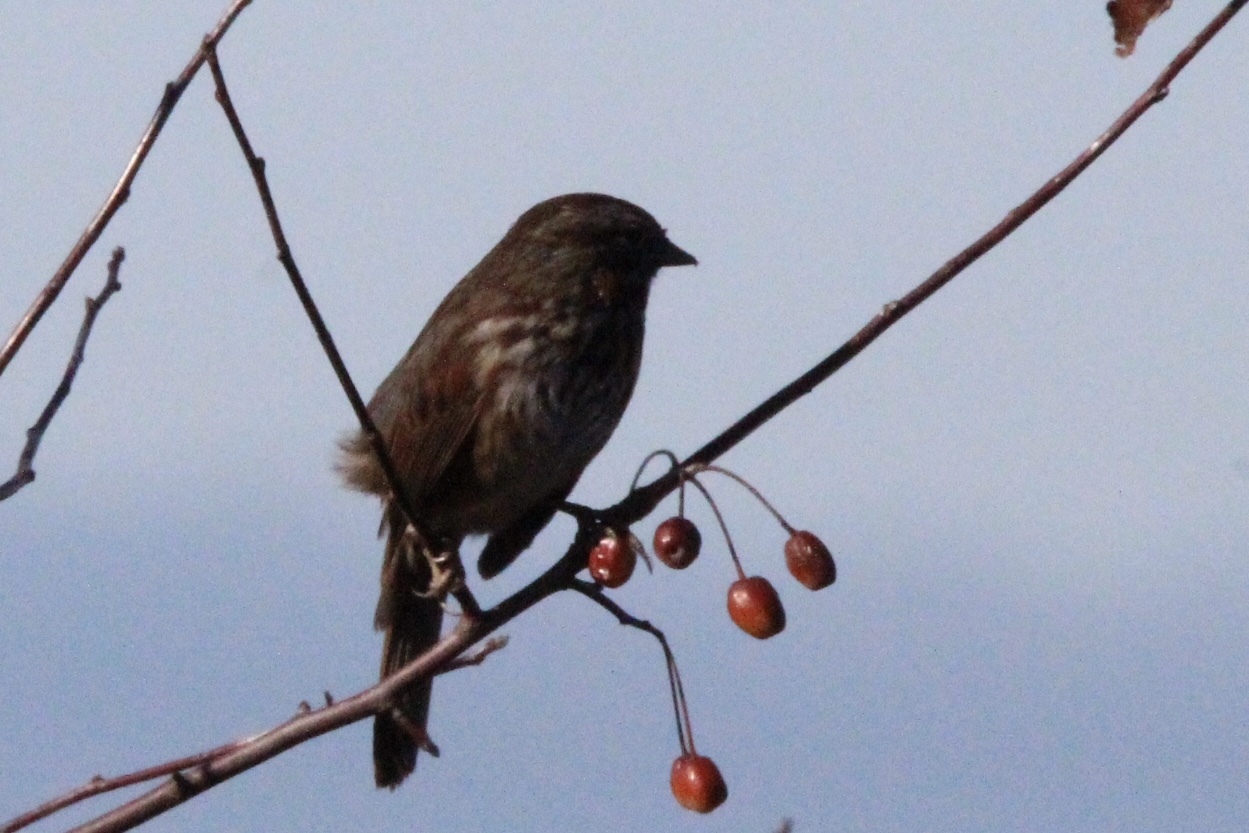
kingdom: Animalia
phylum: Chordata
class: Aves
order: Passeriformes
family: Passerellidae
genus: Melospiza
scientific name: Melospiza melodia
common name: Song sparrow
